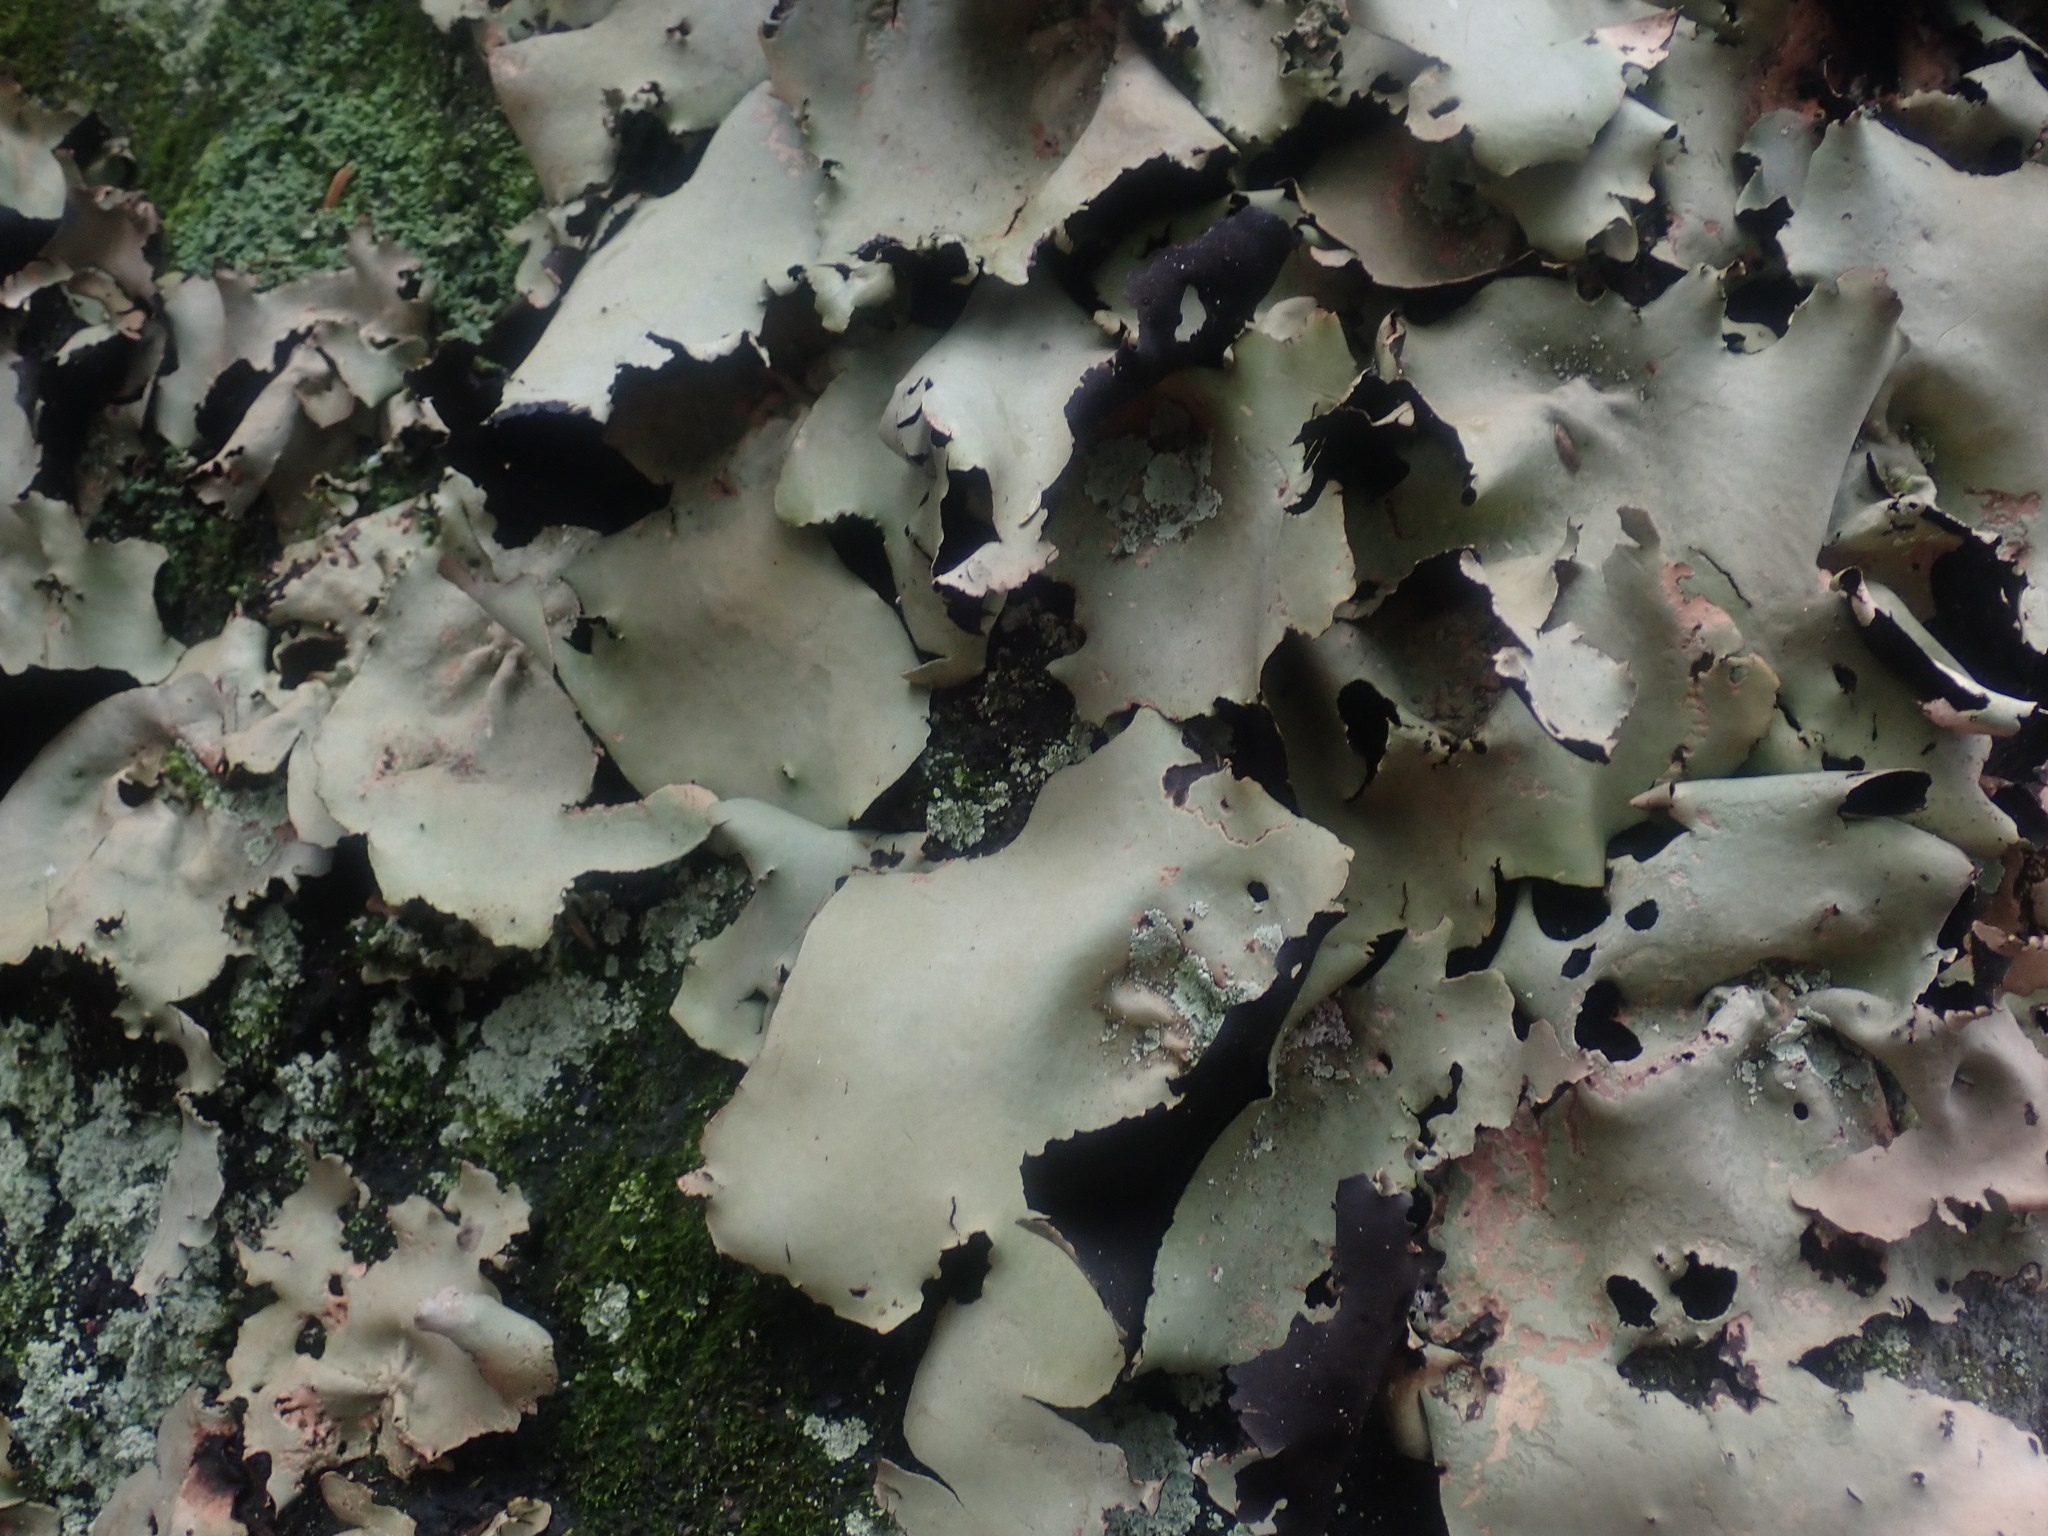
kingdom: Fungi
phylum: Ascomycota
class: Lecanoromycetes
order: Umbilicariales
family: Umbilicariaceae
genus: Umbilicaria
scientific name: Umbilicaria mammulata
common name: Smooth rock tripe
